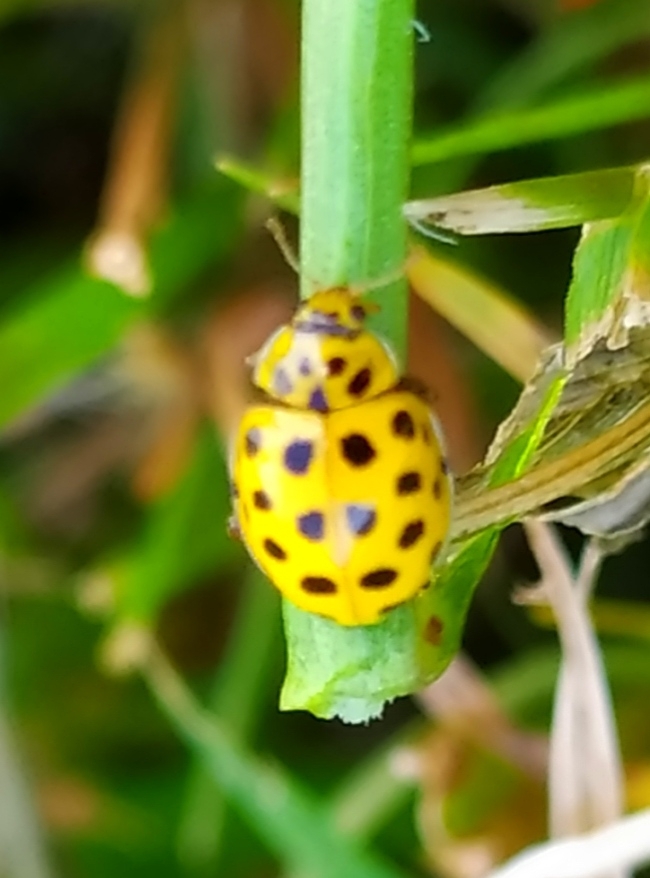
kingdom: Animalia
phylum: Arthropoda
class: Insecta
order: Coleoptera
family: Coccinellidae
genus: Psyllobora
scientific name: Psyllobora vigintiduopunctata
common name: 22-spot ladybird
